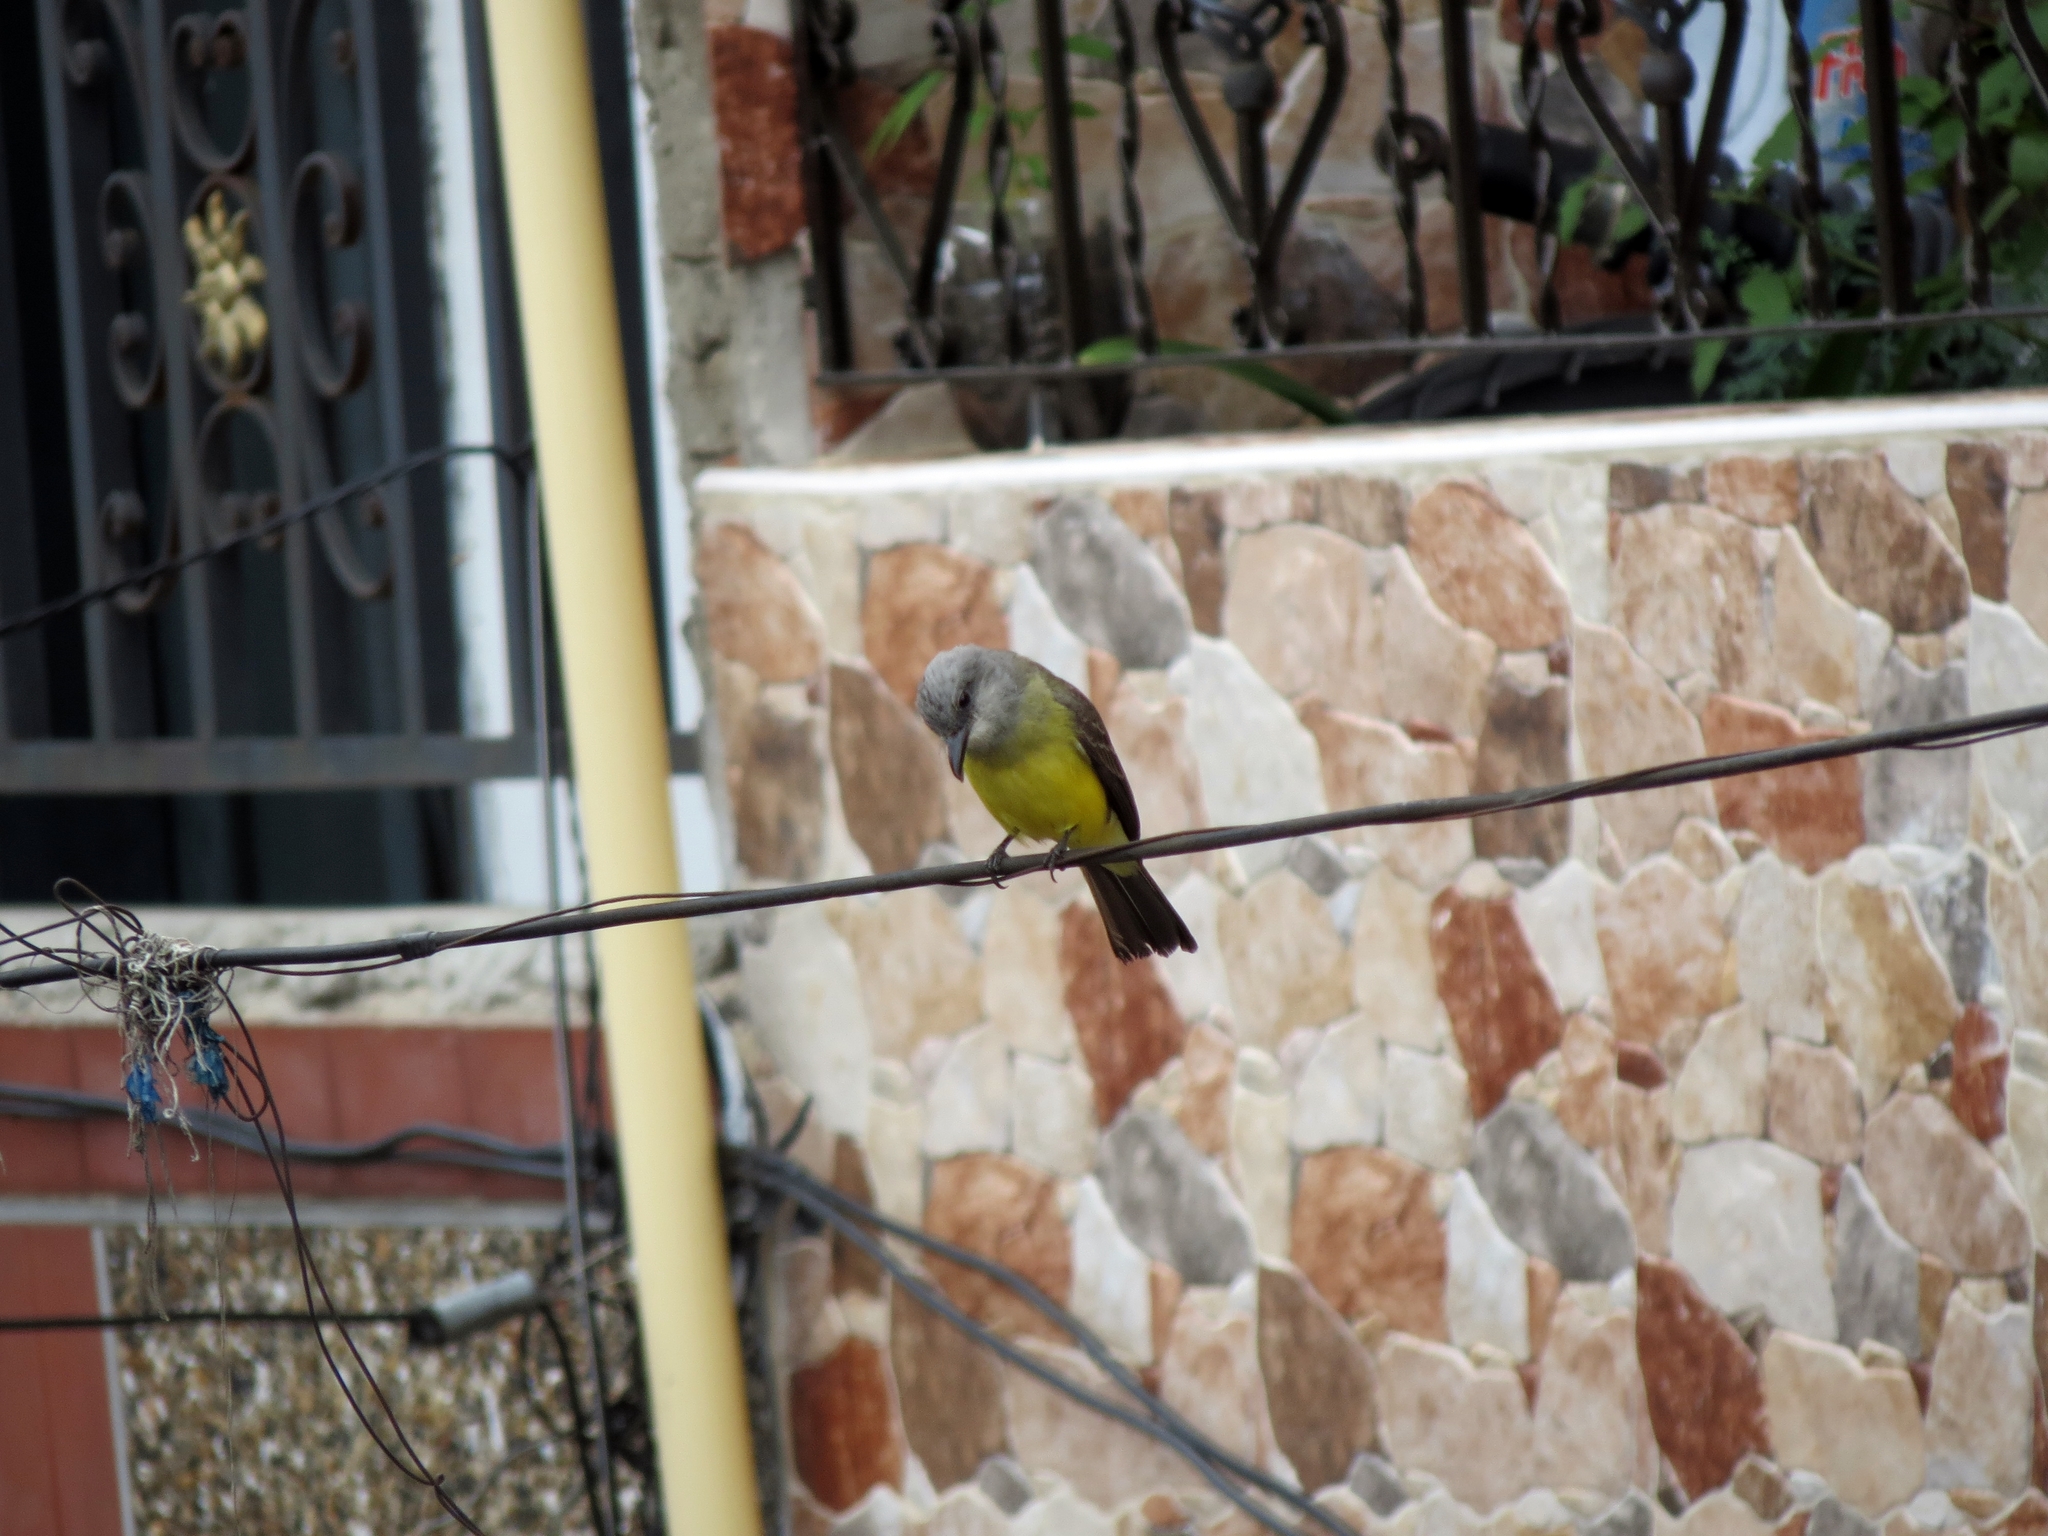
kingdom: Animalia
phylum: Chordata
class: Aves
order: Passeriformes
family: Tyrannidae
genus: Tyrannus
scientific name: Tyrannus melancholicus
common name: Tropical kingbird
